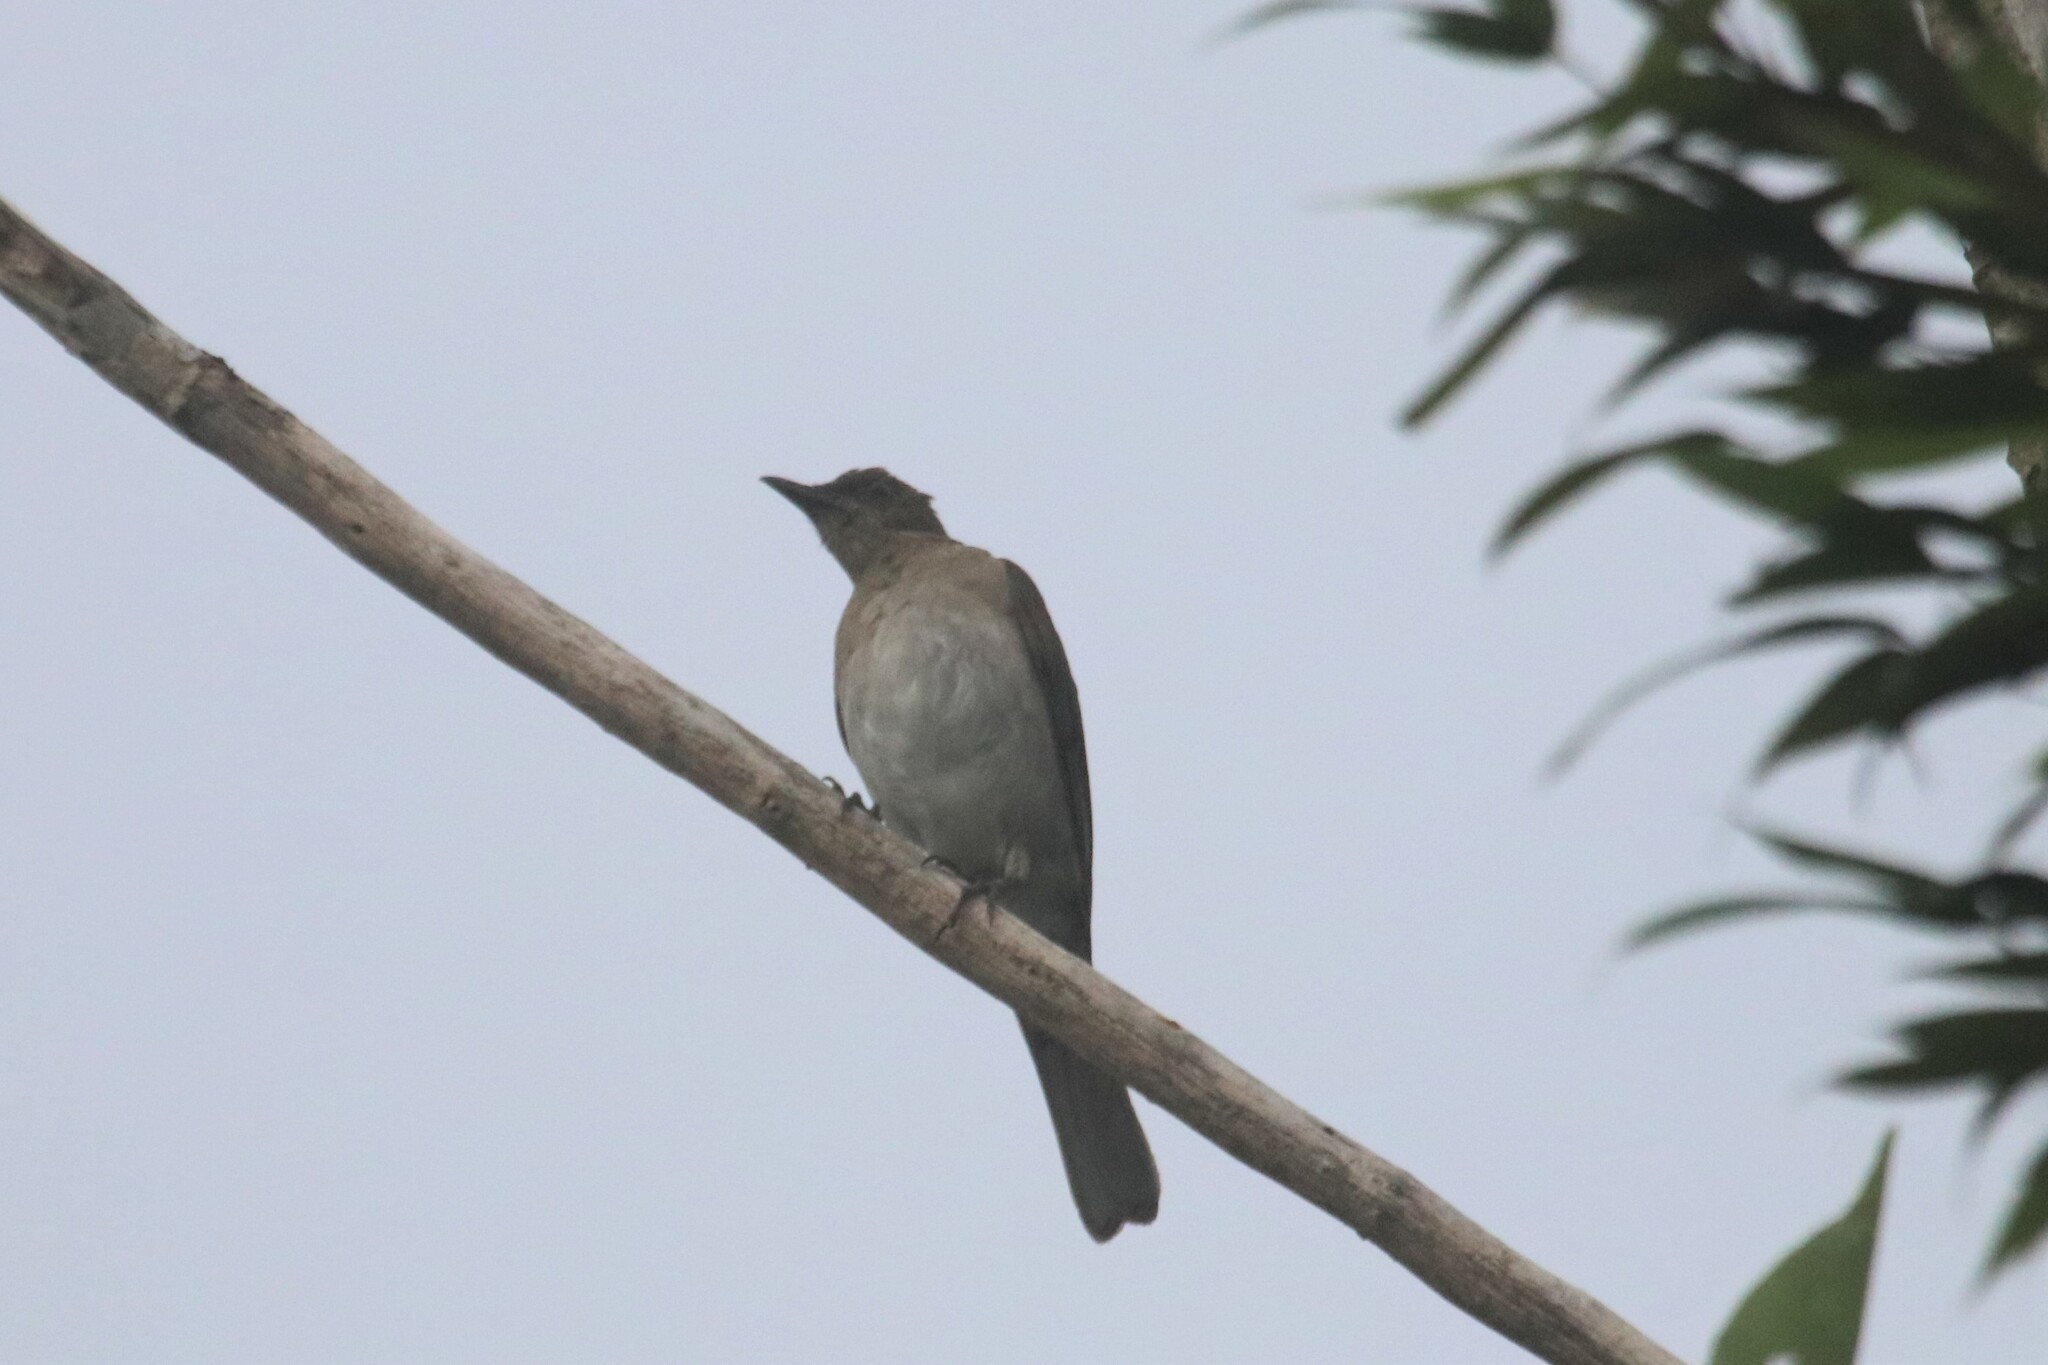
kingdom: Animalia
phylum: Chordata
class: Aves
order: Passeriformes
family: Turdidae
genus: Turdus
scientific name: Turdus ignobilis
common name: Black-billed thrush
